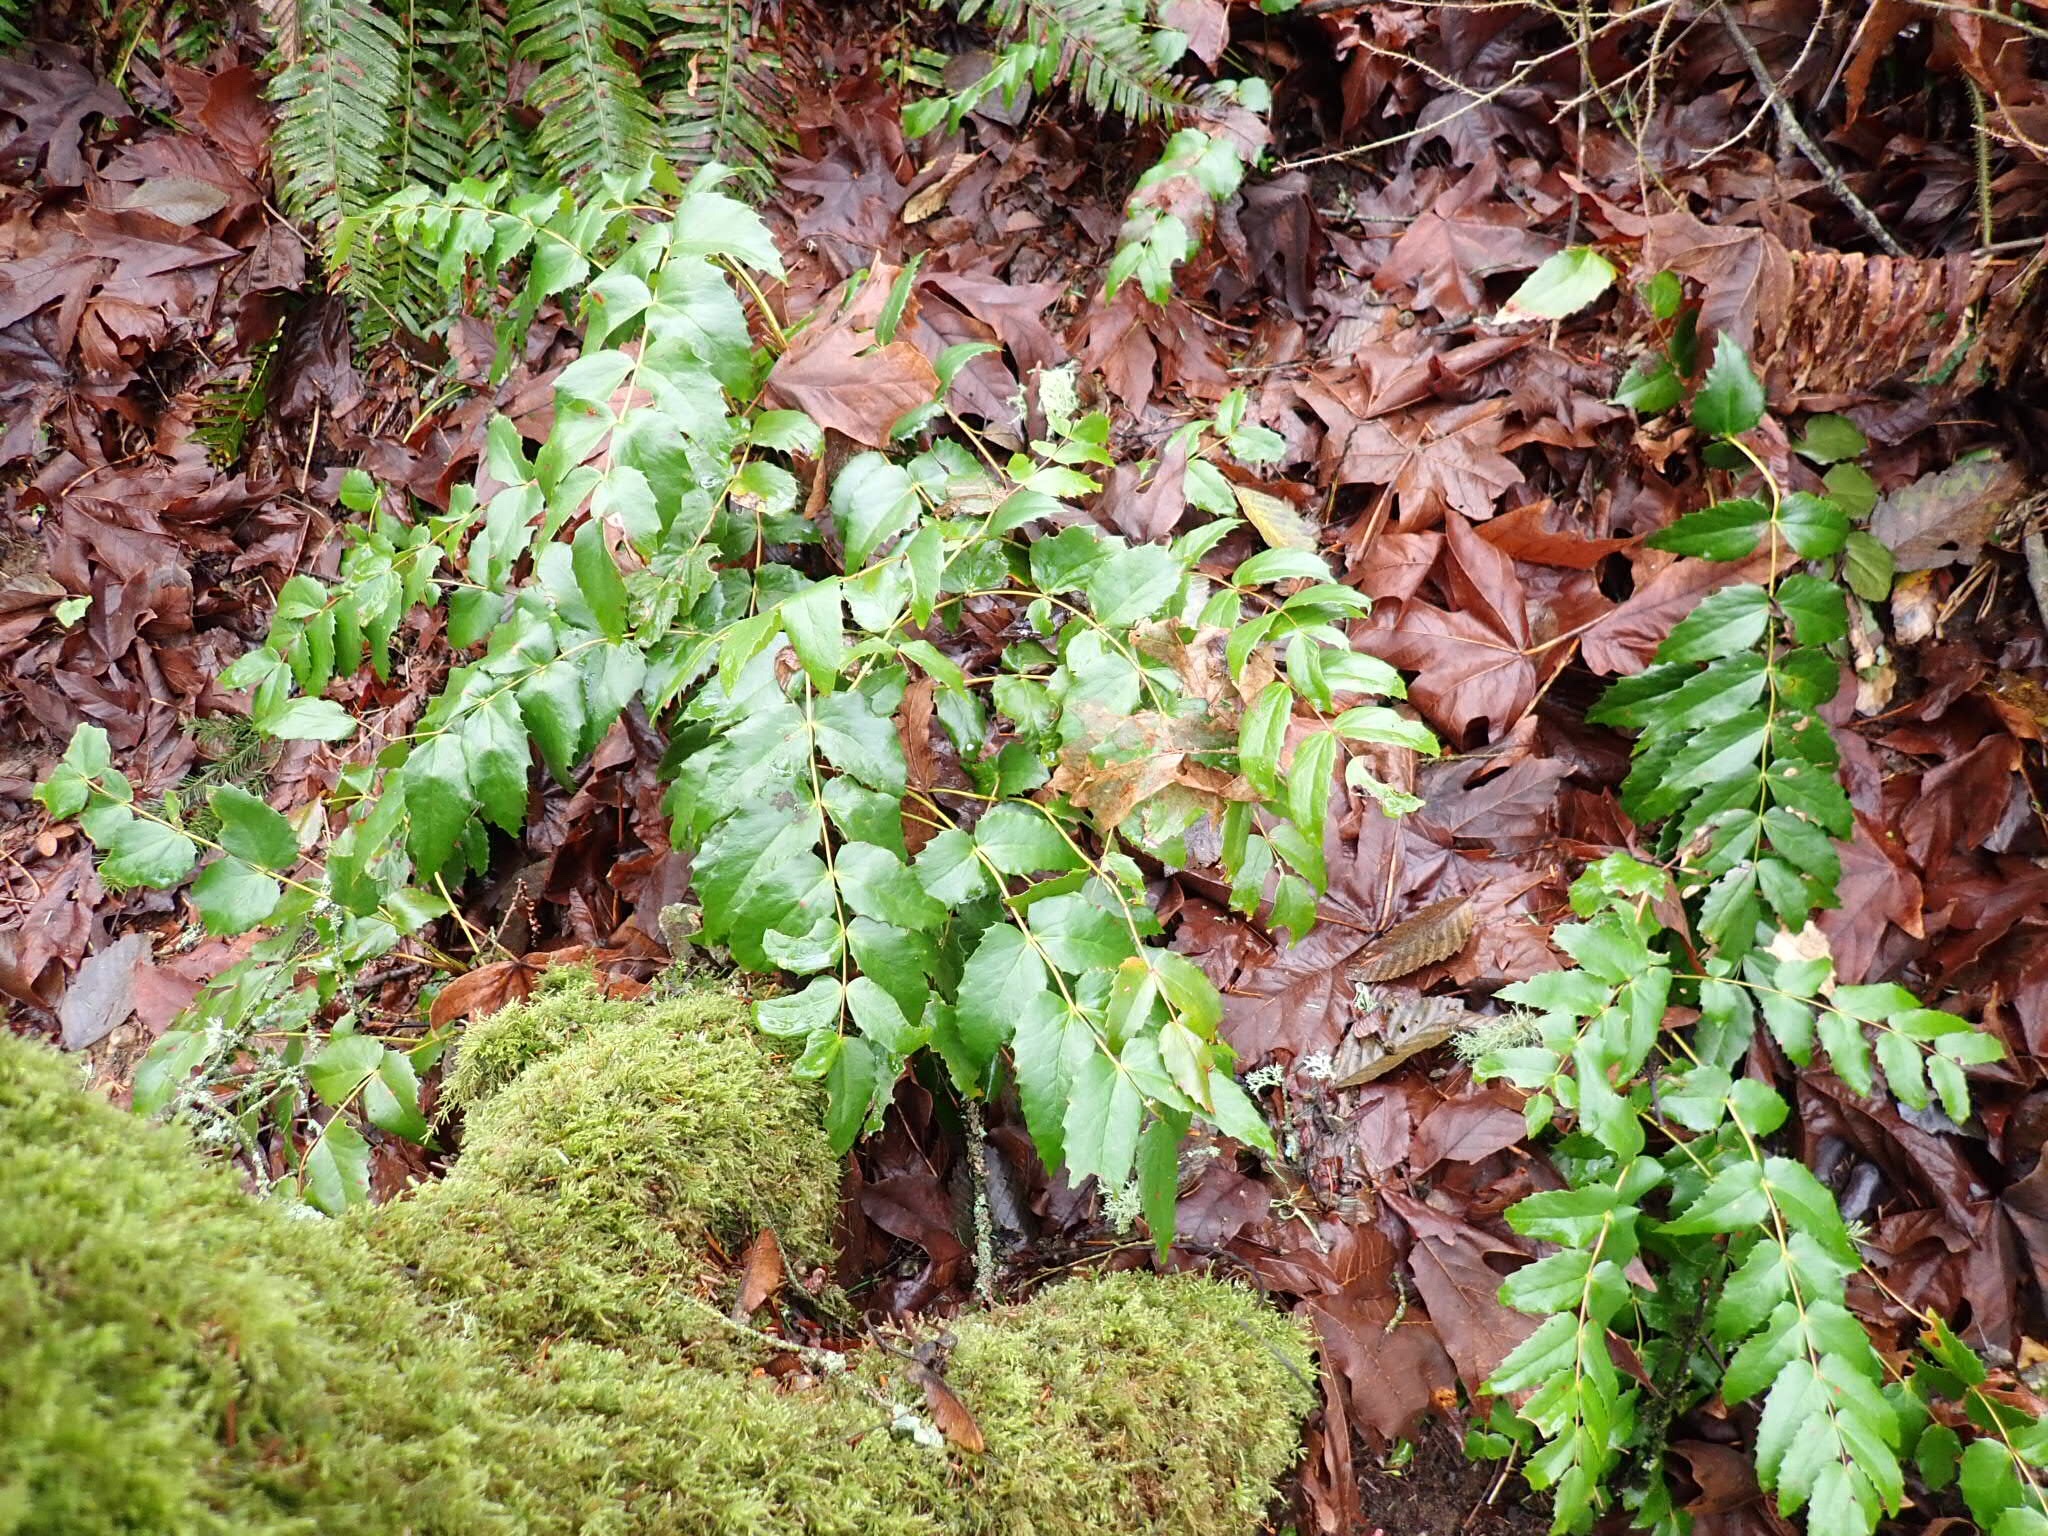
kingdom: Plantae
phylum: Tracheophyta
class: Magnoliopsida
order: Ranunculales
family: Berberidaceae
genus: Mahonia
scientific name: Mahonia nervosa
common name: Cascade oregon-grape
